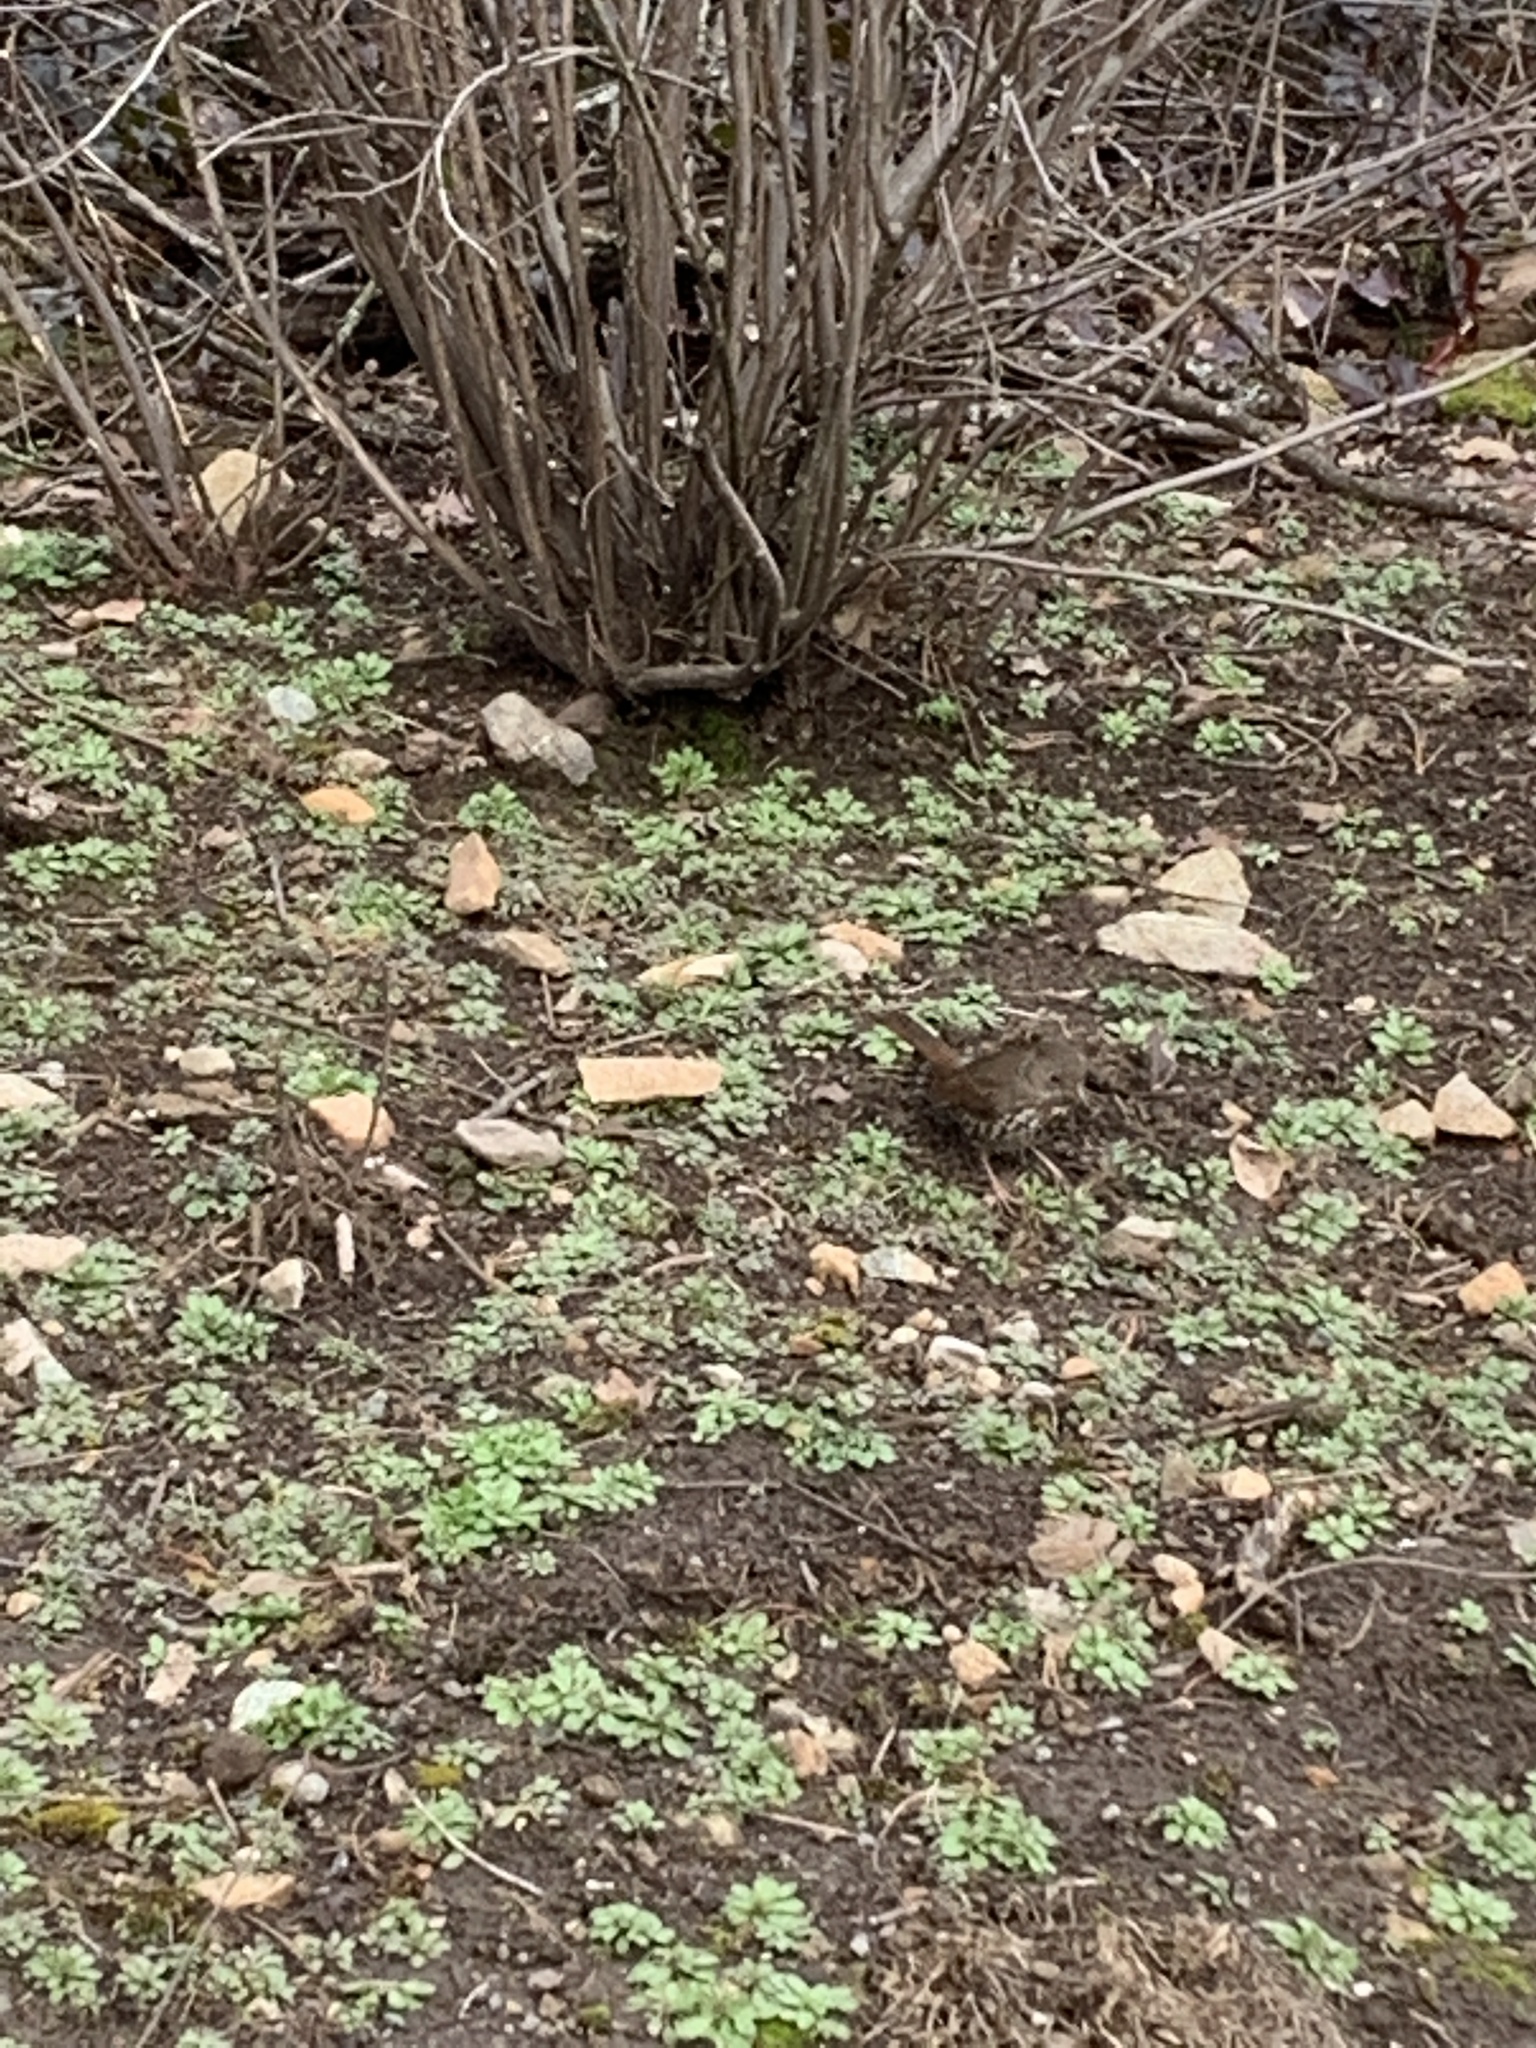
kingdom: Animalia
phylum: Chordata
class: Aves
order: Passeriformes
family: Passerellidae
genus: Passerella
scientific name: Passerella iliaca
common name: Fox sparrow
